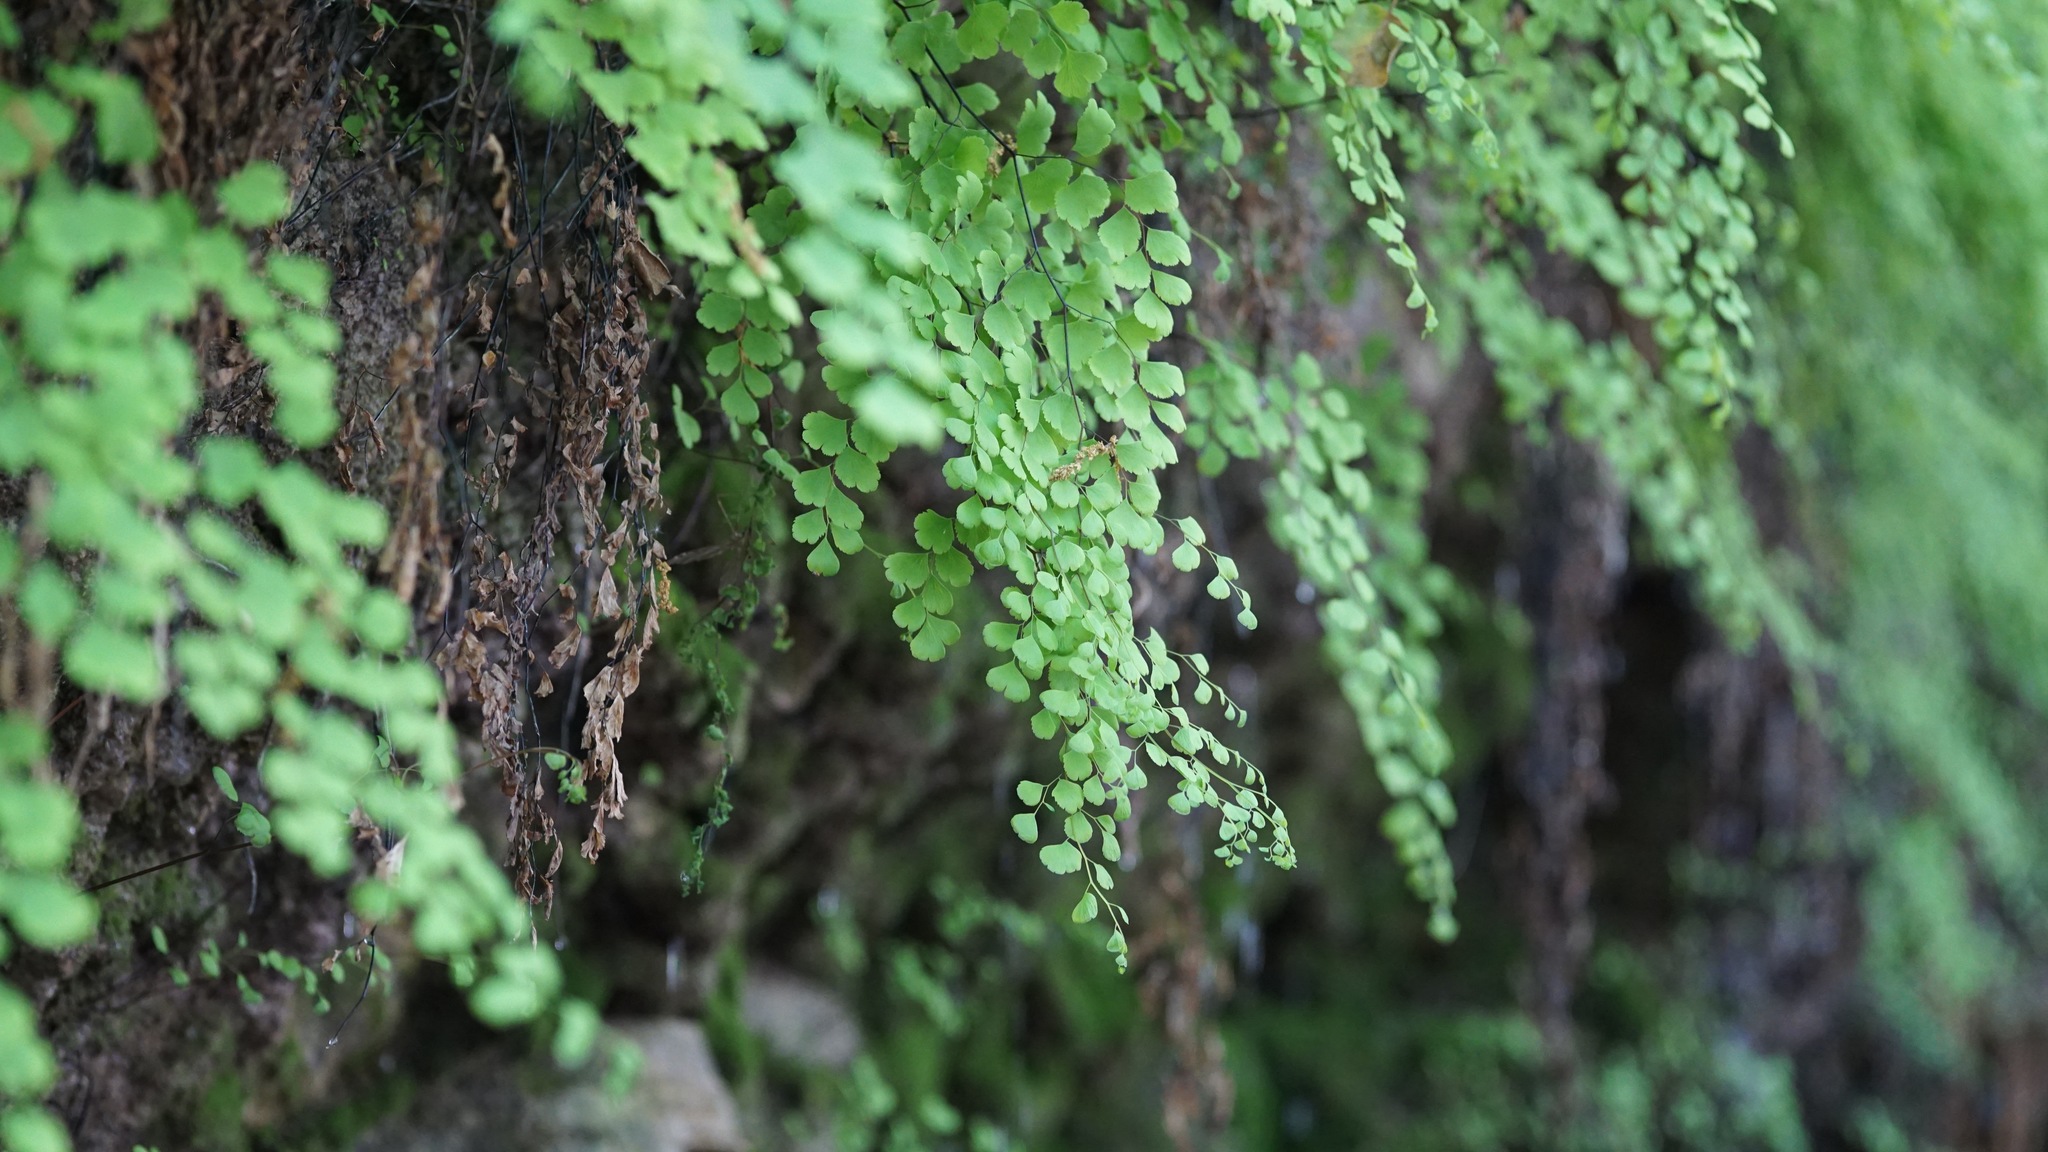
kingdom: Plantae
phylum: Tracheophyta
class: Polypodiopsida
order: Polypodiales
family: Pteridaceae
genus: Adiantum
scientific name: Adiantum capillus-veneris
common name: Maidenhair fern
